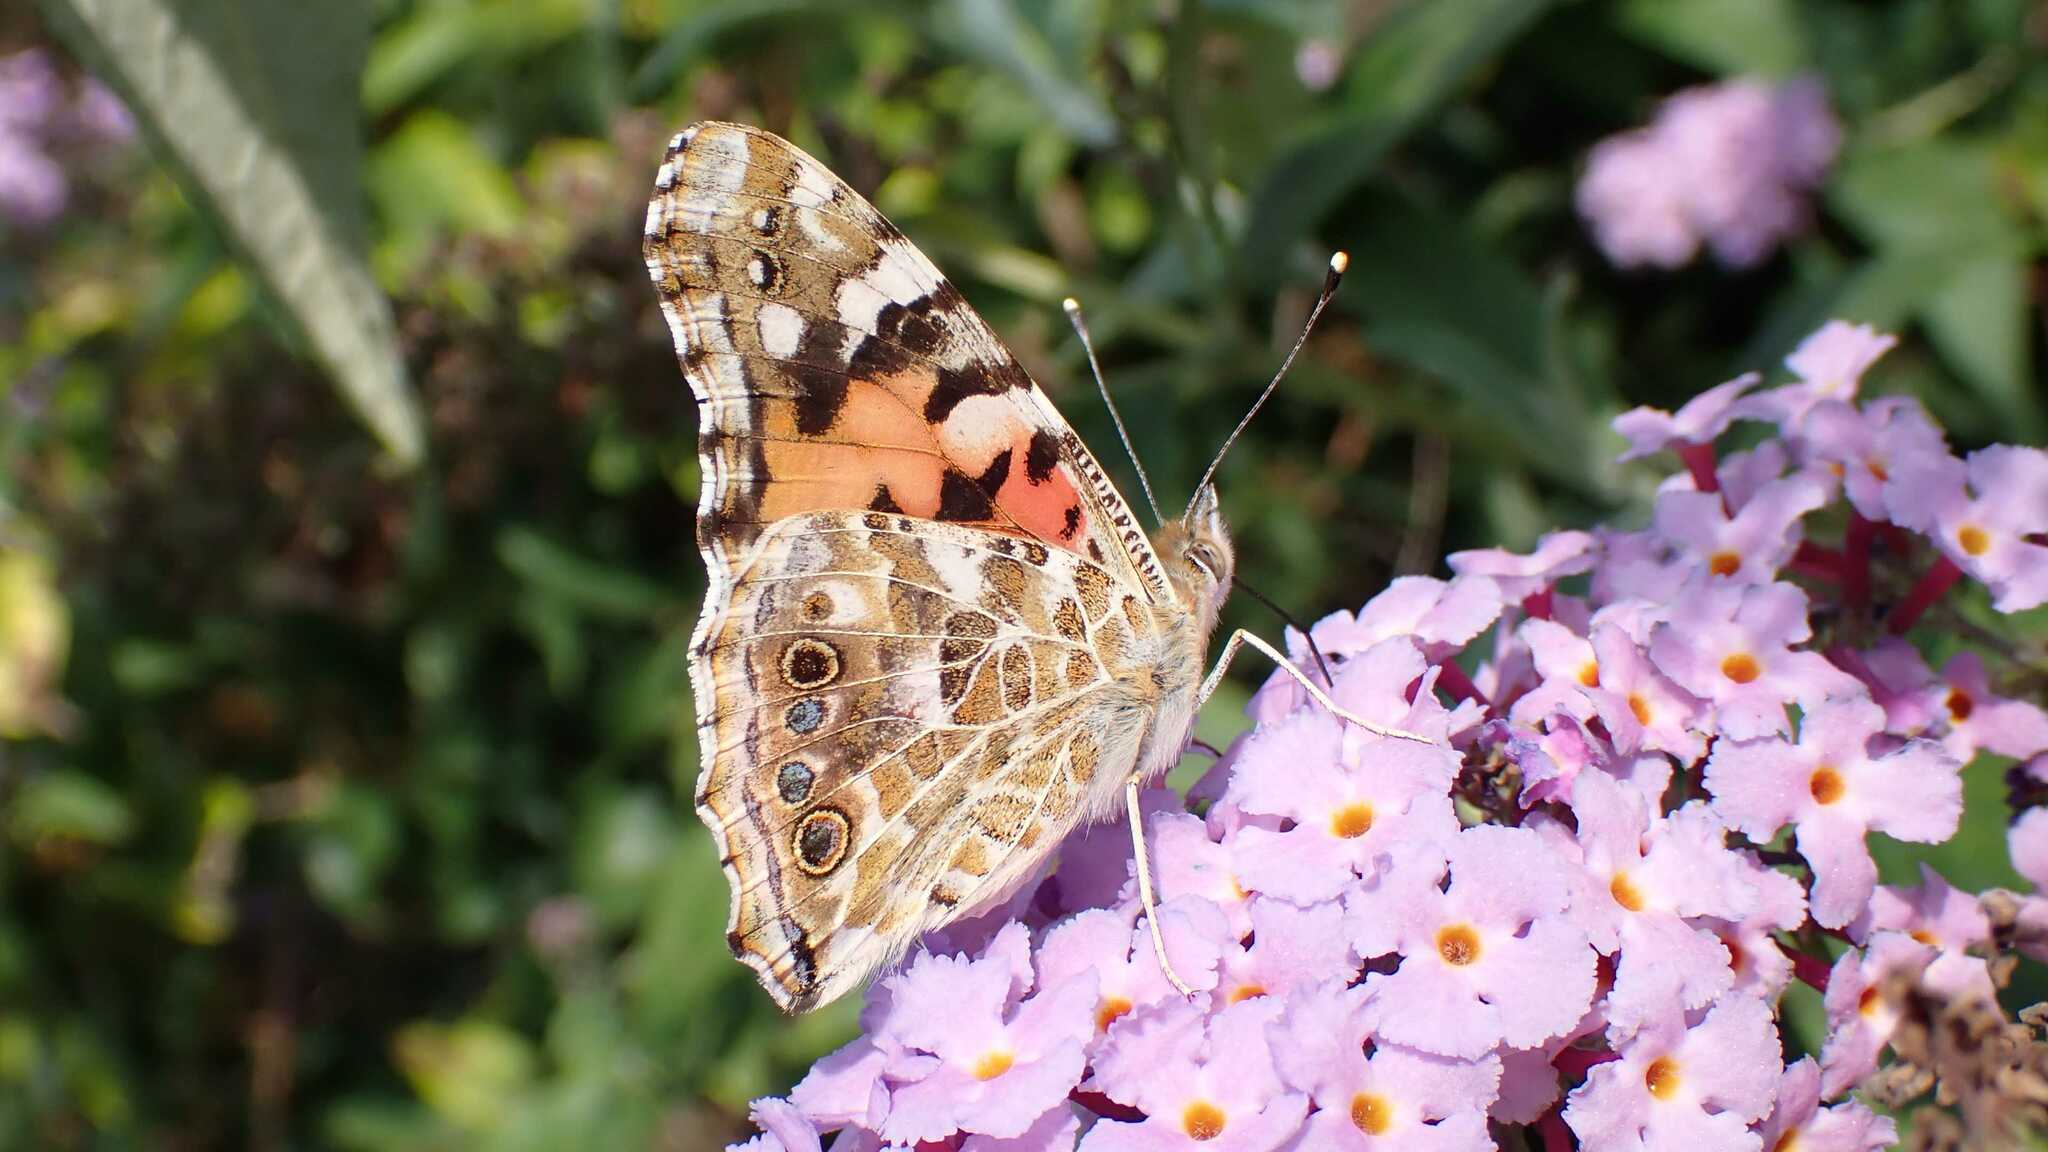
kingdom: Animalia
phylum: Arthropoda
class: Insecta
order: Lepidoptera
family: Nymphalidae
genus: Vanessa
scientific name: Vanessa cardui
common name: Painted lady
